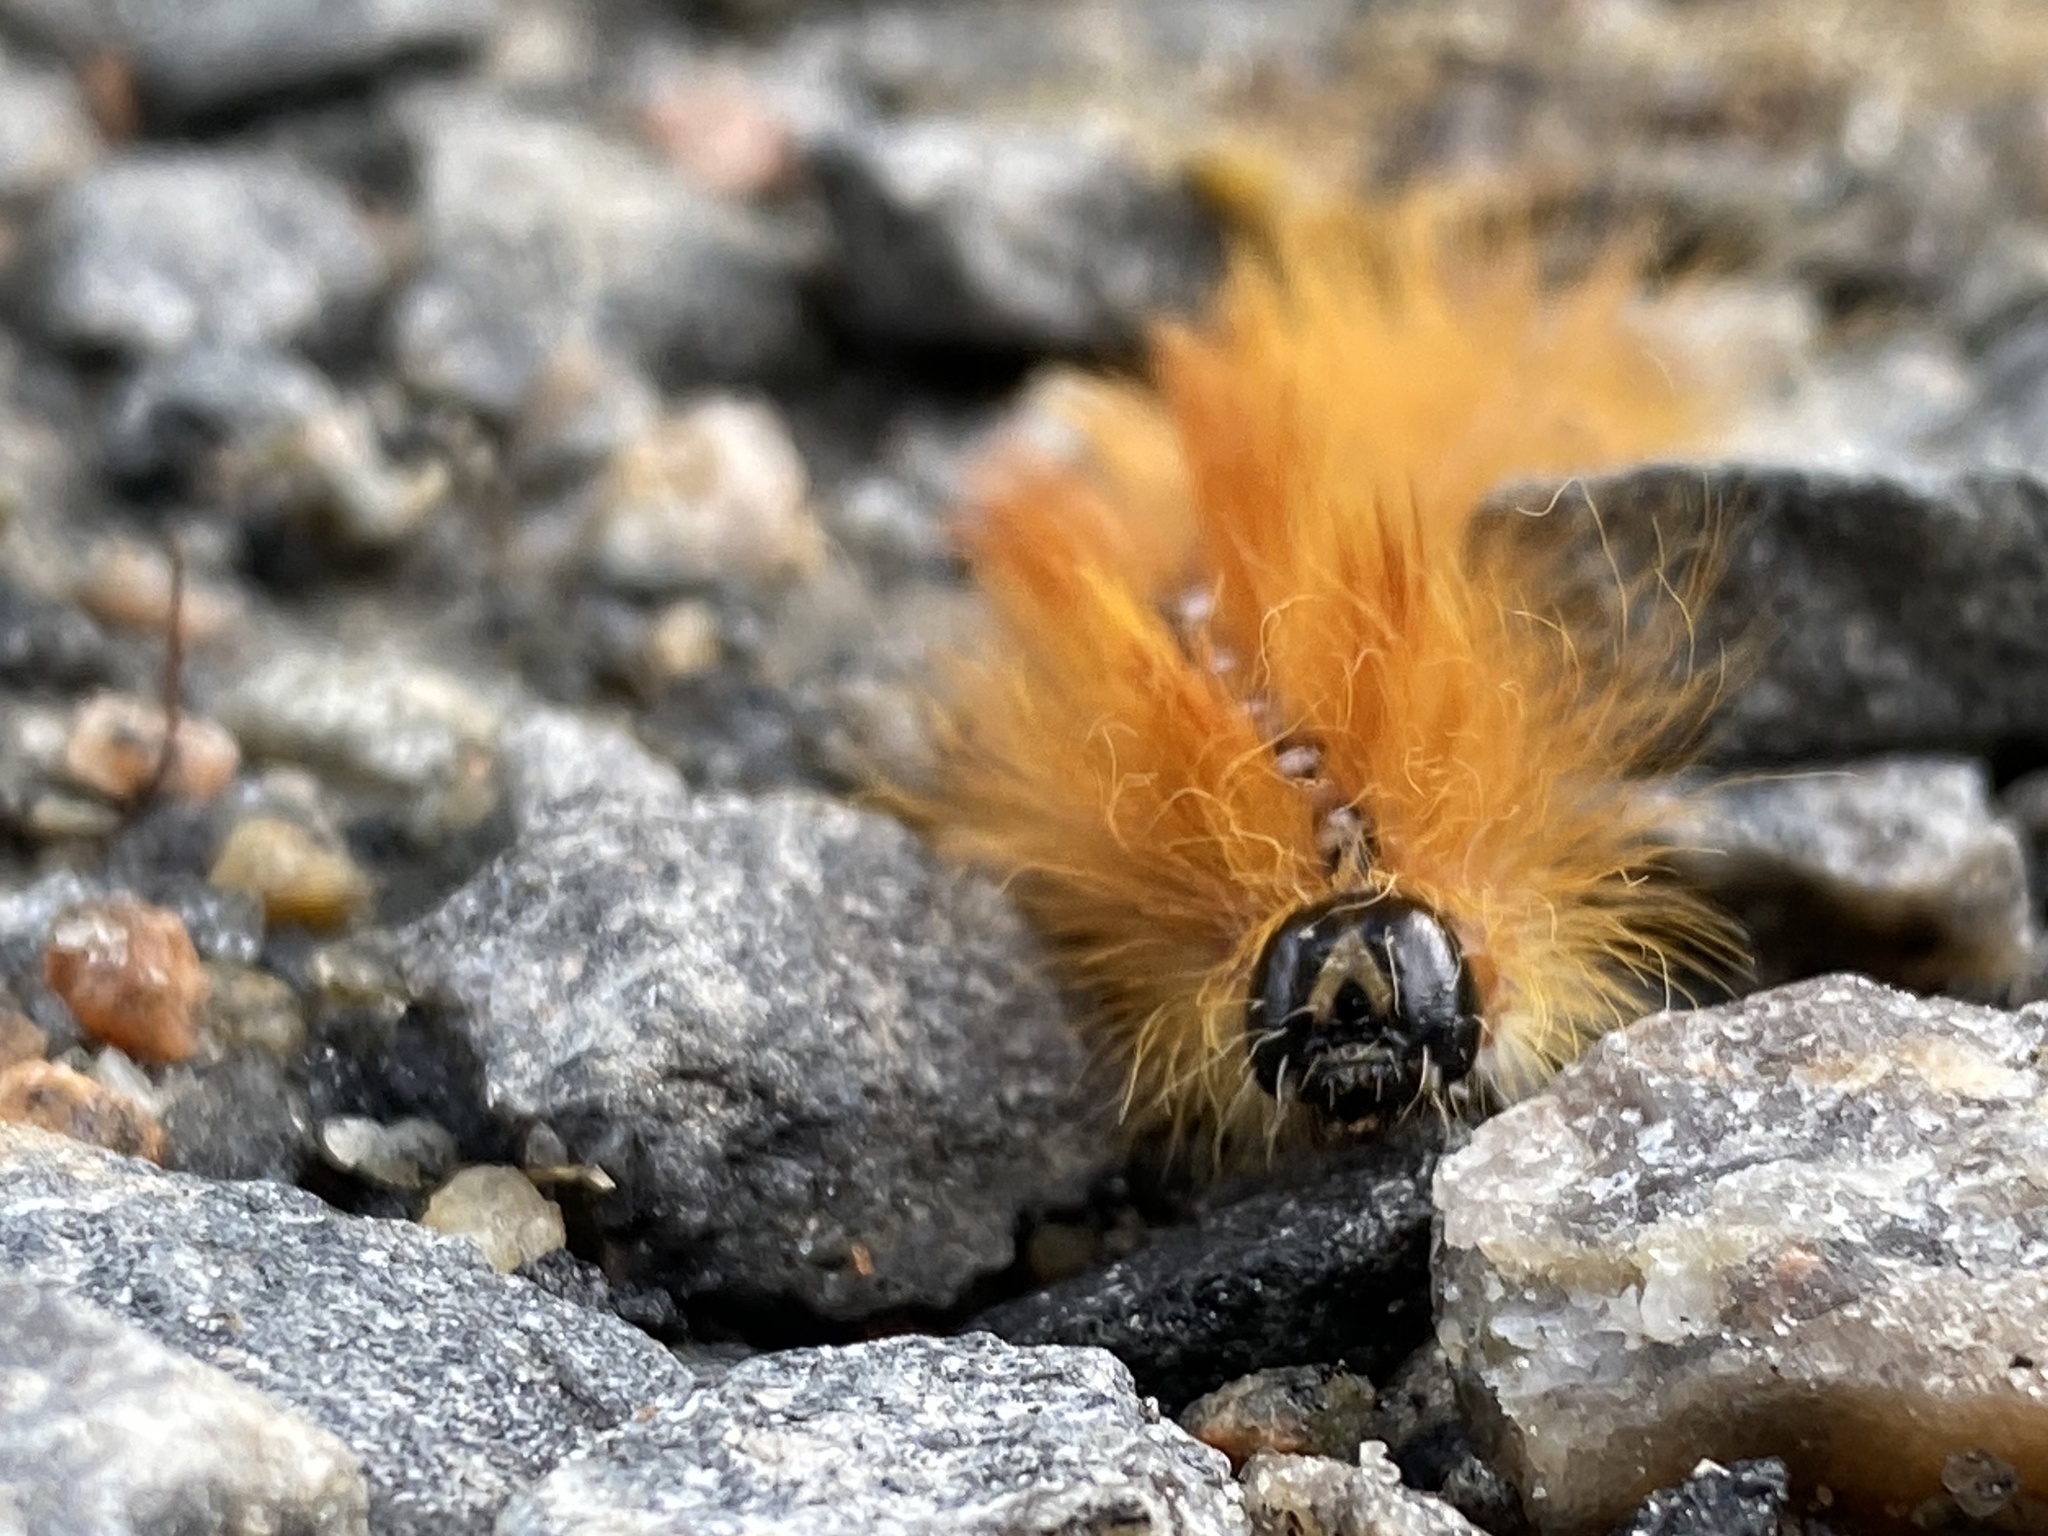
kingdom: Animalia
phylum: Arthropoda
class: Insecta
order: Lepidoptera
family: Noctuidae
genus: Acronicta
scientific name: Acronicta aceris
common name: Sycamore
